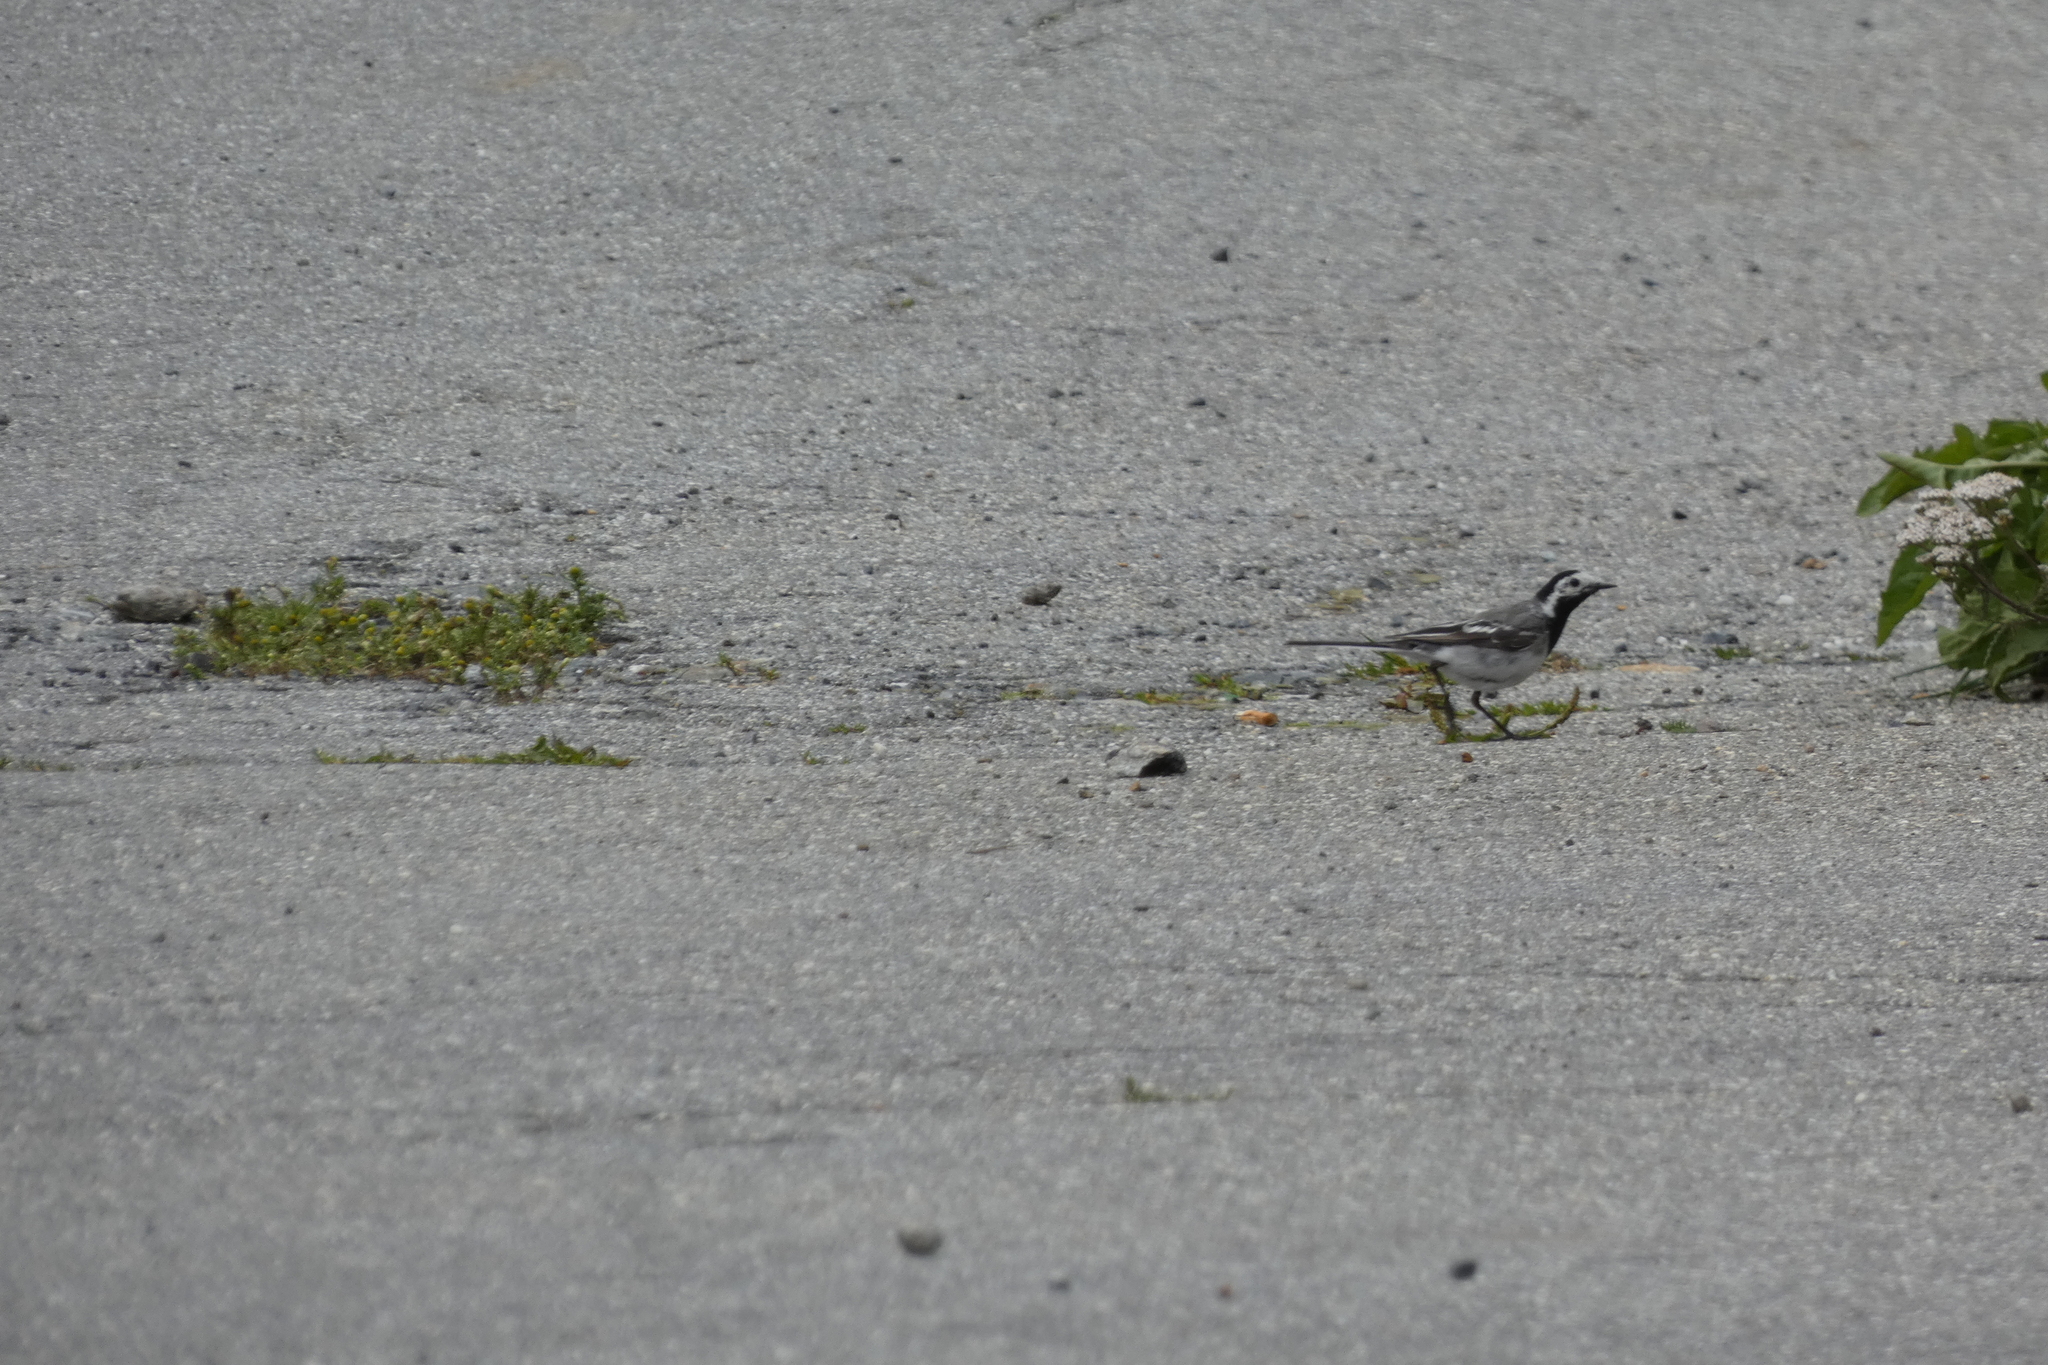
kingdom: Animalia
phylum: Chordata
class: Aves
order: Passeriformes
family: Motacillidae
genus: Motacilla
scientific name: Motacilla alba
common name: White wagtail
